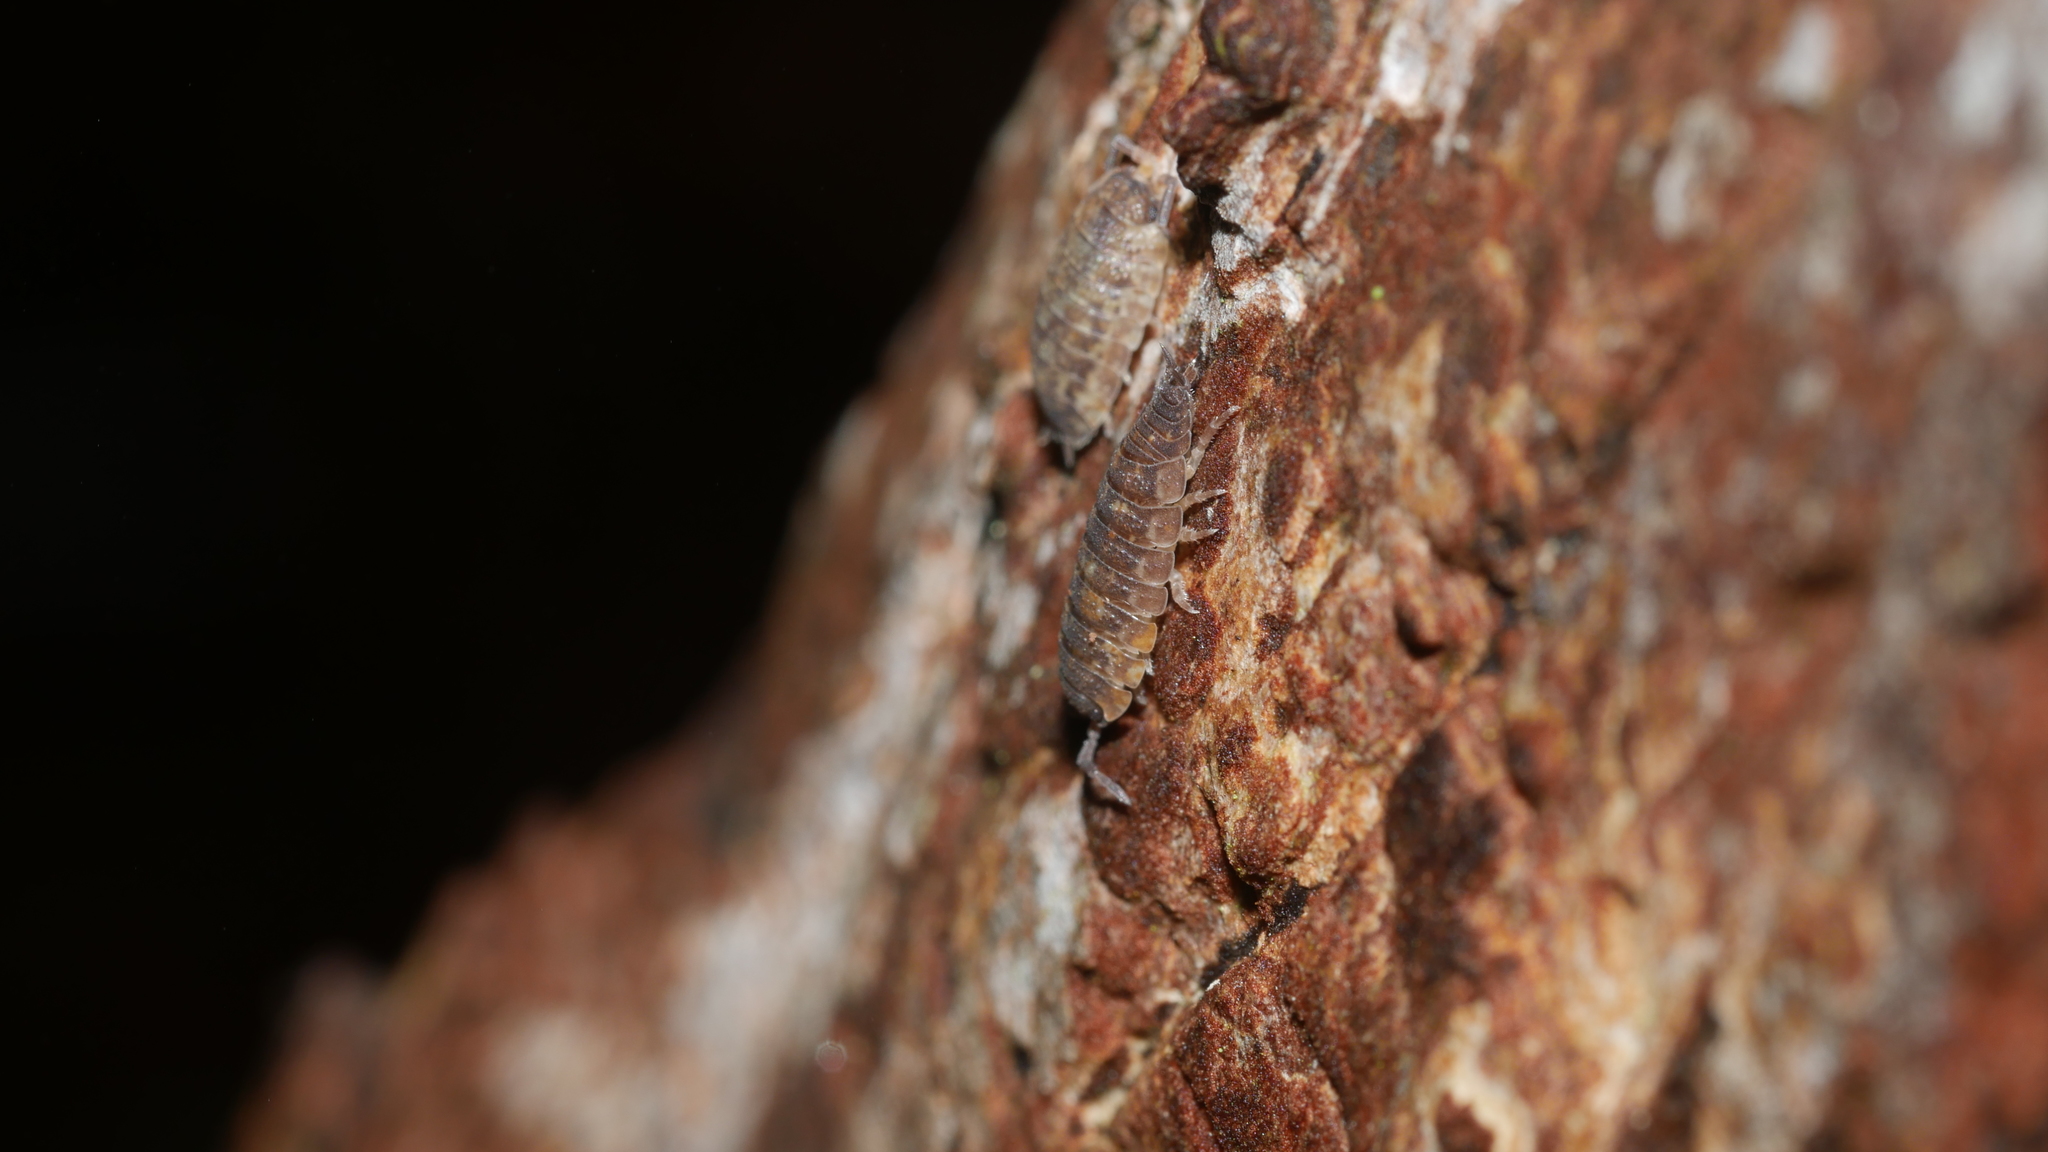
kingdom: Animalia
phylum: Arthropoda
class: Malacostraca
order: Isopoda
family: Porcellionidae
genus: Porcellio
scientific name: Porcellio scaber
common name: Common rough woodlouse
